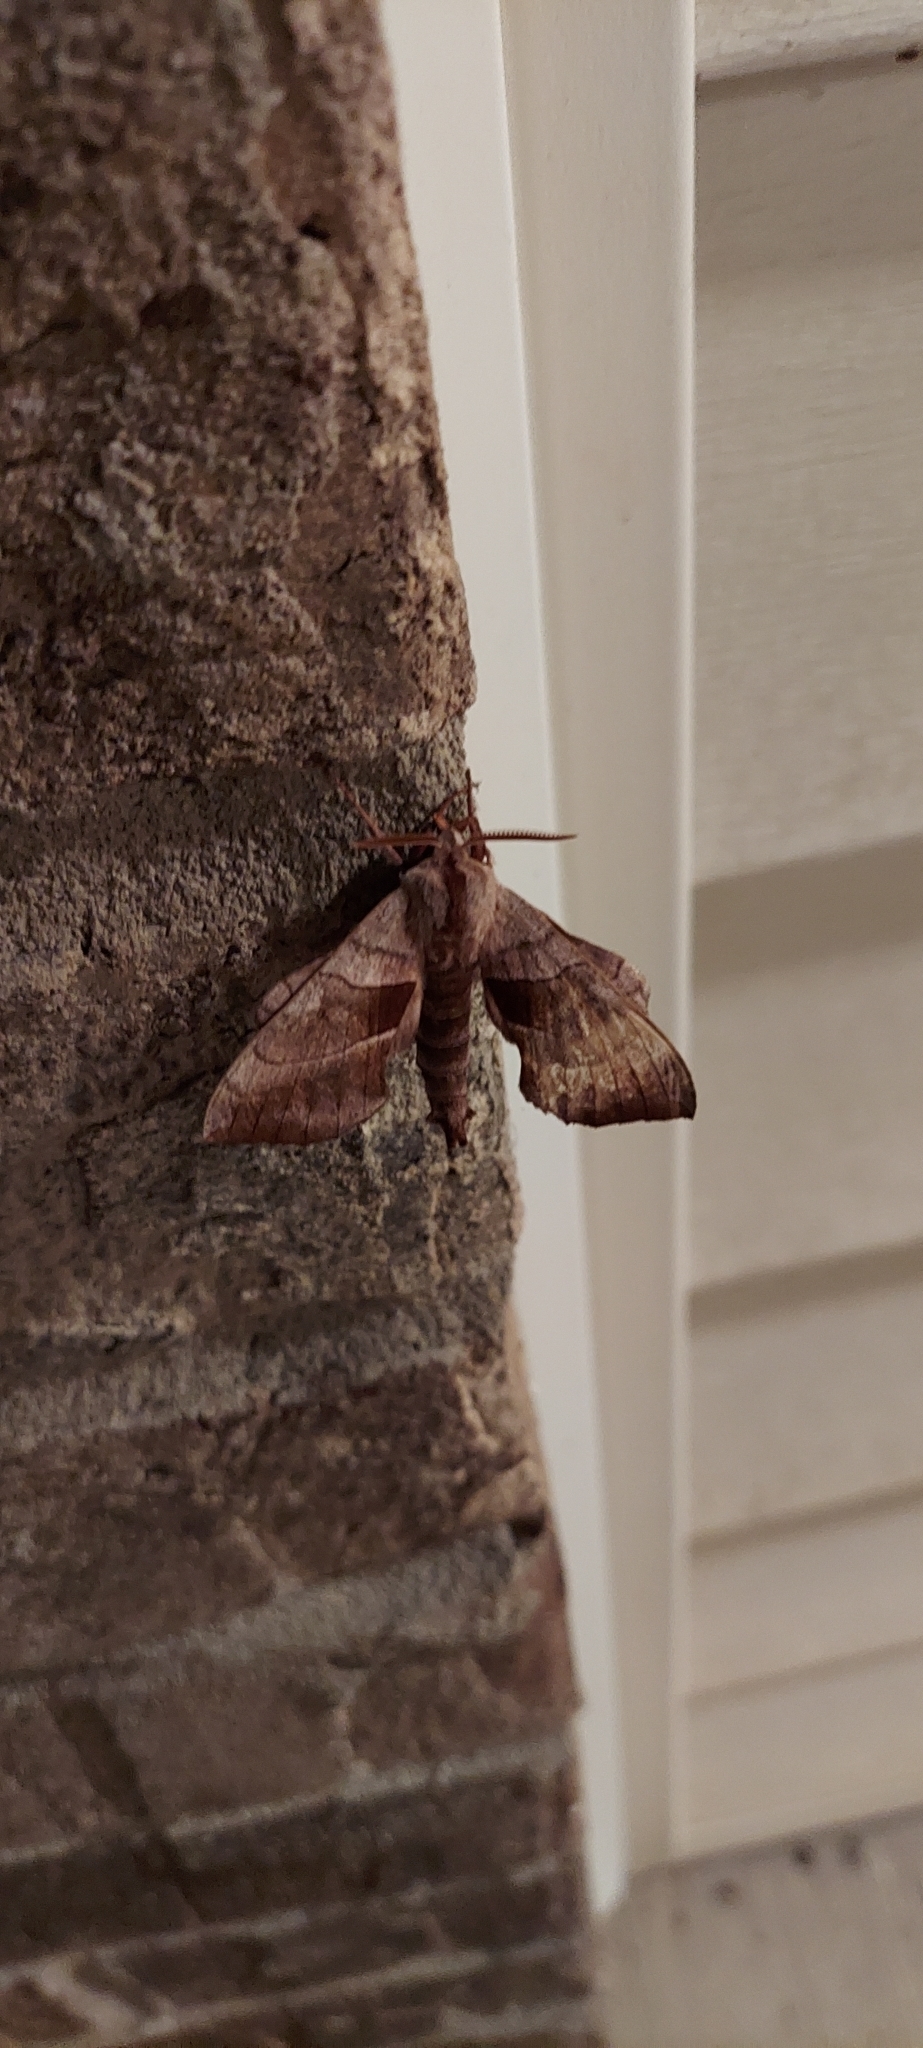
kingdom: Animalia
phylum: Arthropoda
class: Insecta
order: Lepidoptera
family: Sphingidae
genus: Amorpha
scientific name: Amorpha juglandis
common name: Walnut sphinx
